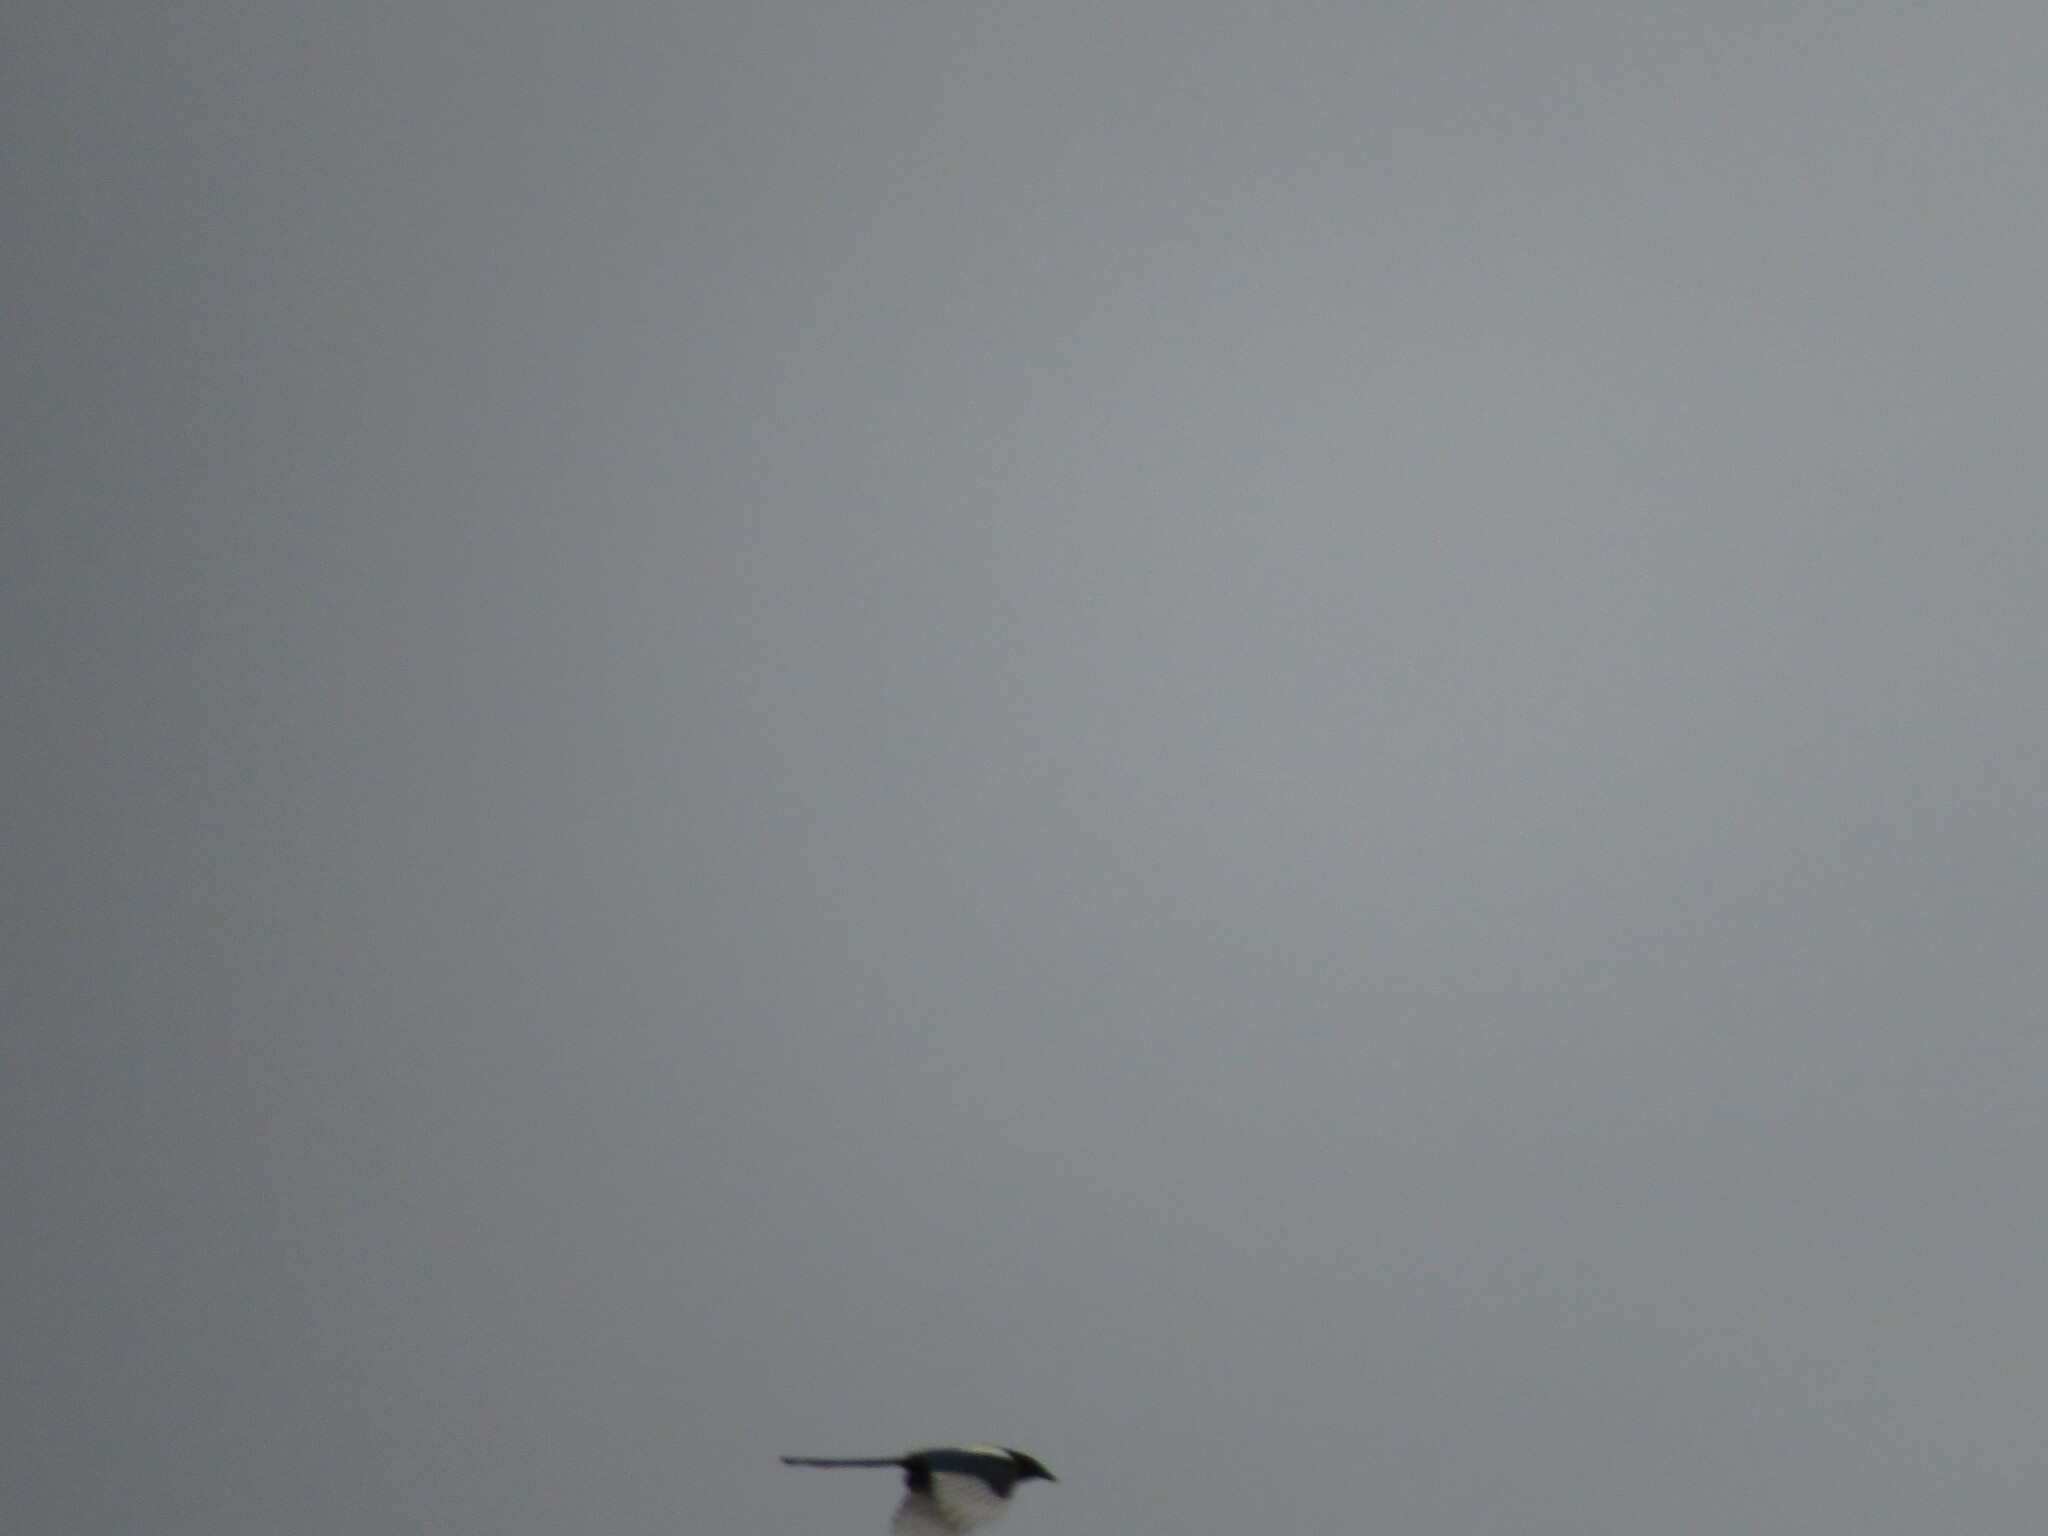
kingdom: Animalia
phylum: Chordata
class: Aves
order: Passeriformes
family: Corvidae
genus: Pica
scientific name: Pica pica
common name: Eurasian magpie
